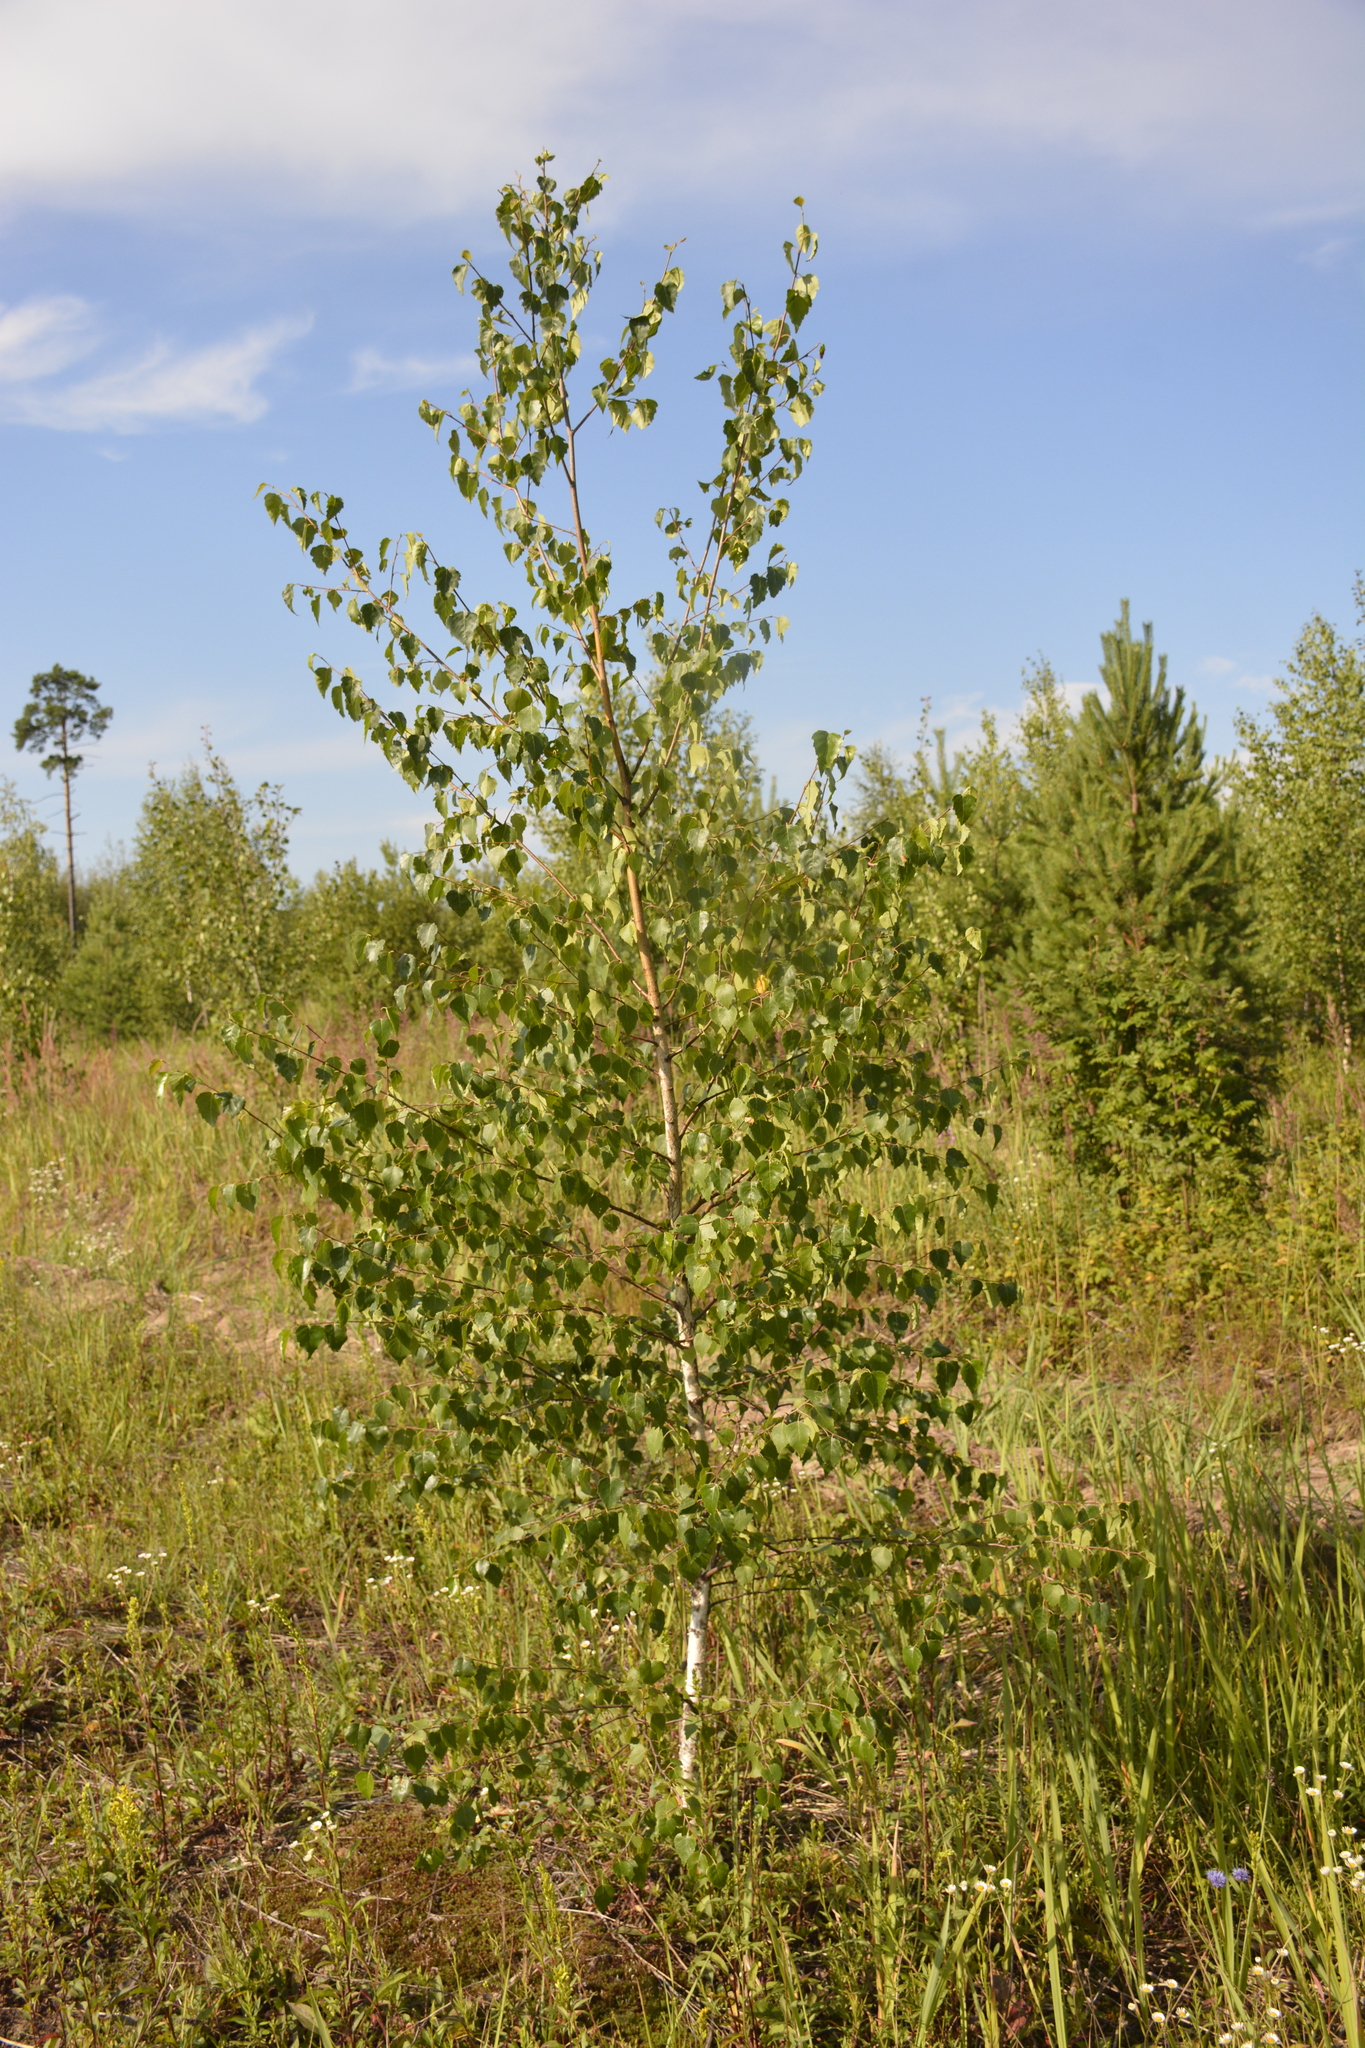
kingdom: Plantae
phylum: Tracheophyta
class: Magnoliopsida
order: Fagales
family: Betulaceae
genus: Betula
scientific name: Betula pendula
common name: Silver birch
